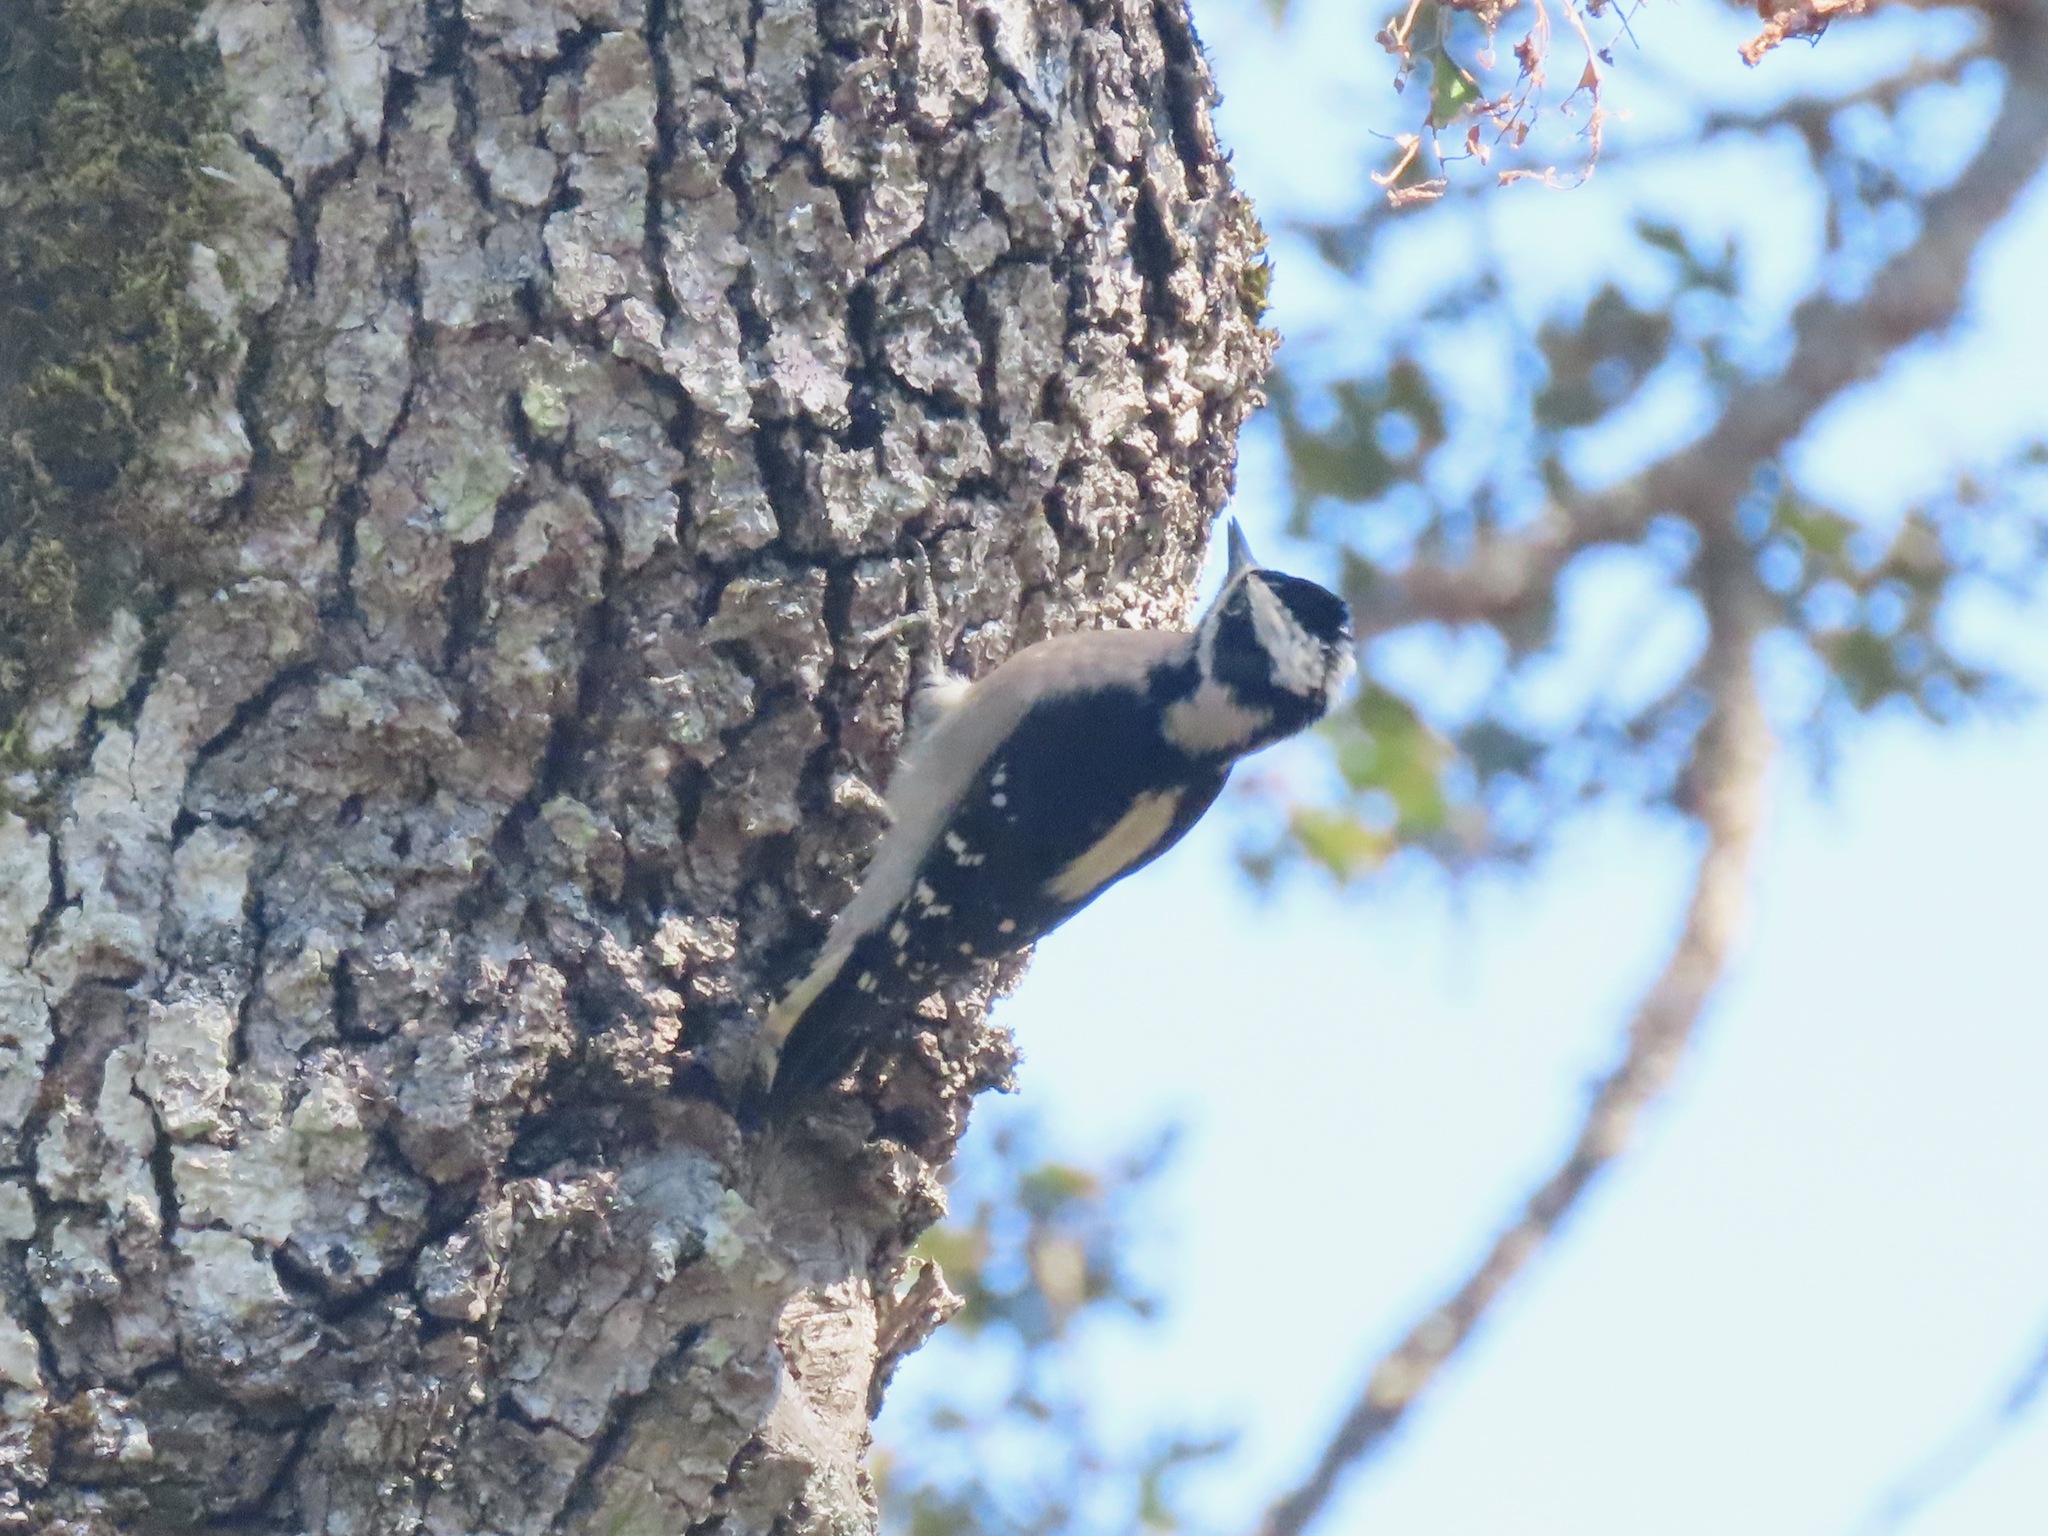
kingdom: Animalia
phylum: Chordata
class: Aves
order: Piciformes
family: Picidae
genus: Dryobates
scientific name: Dryobates pubescens
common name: Downy woodpecker
